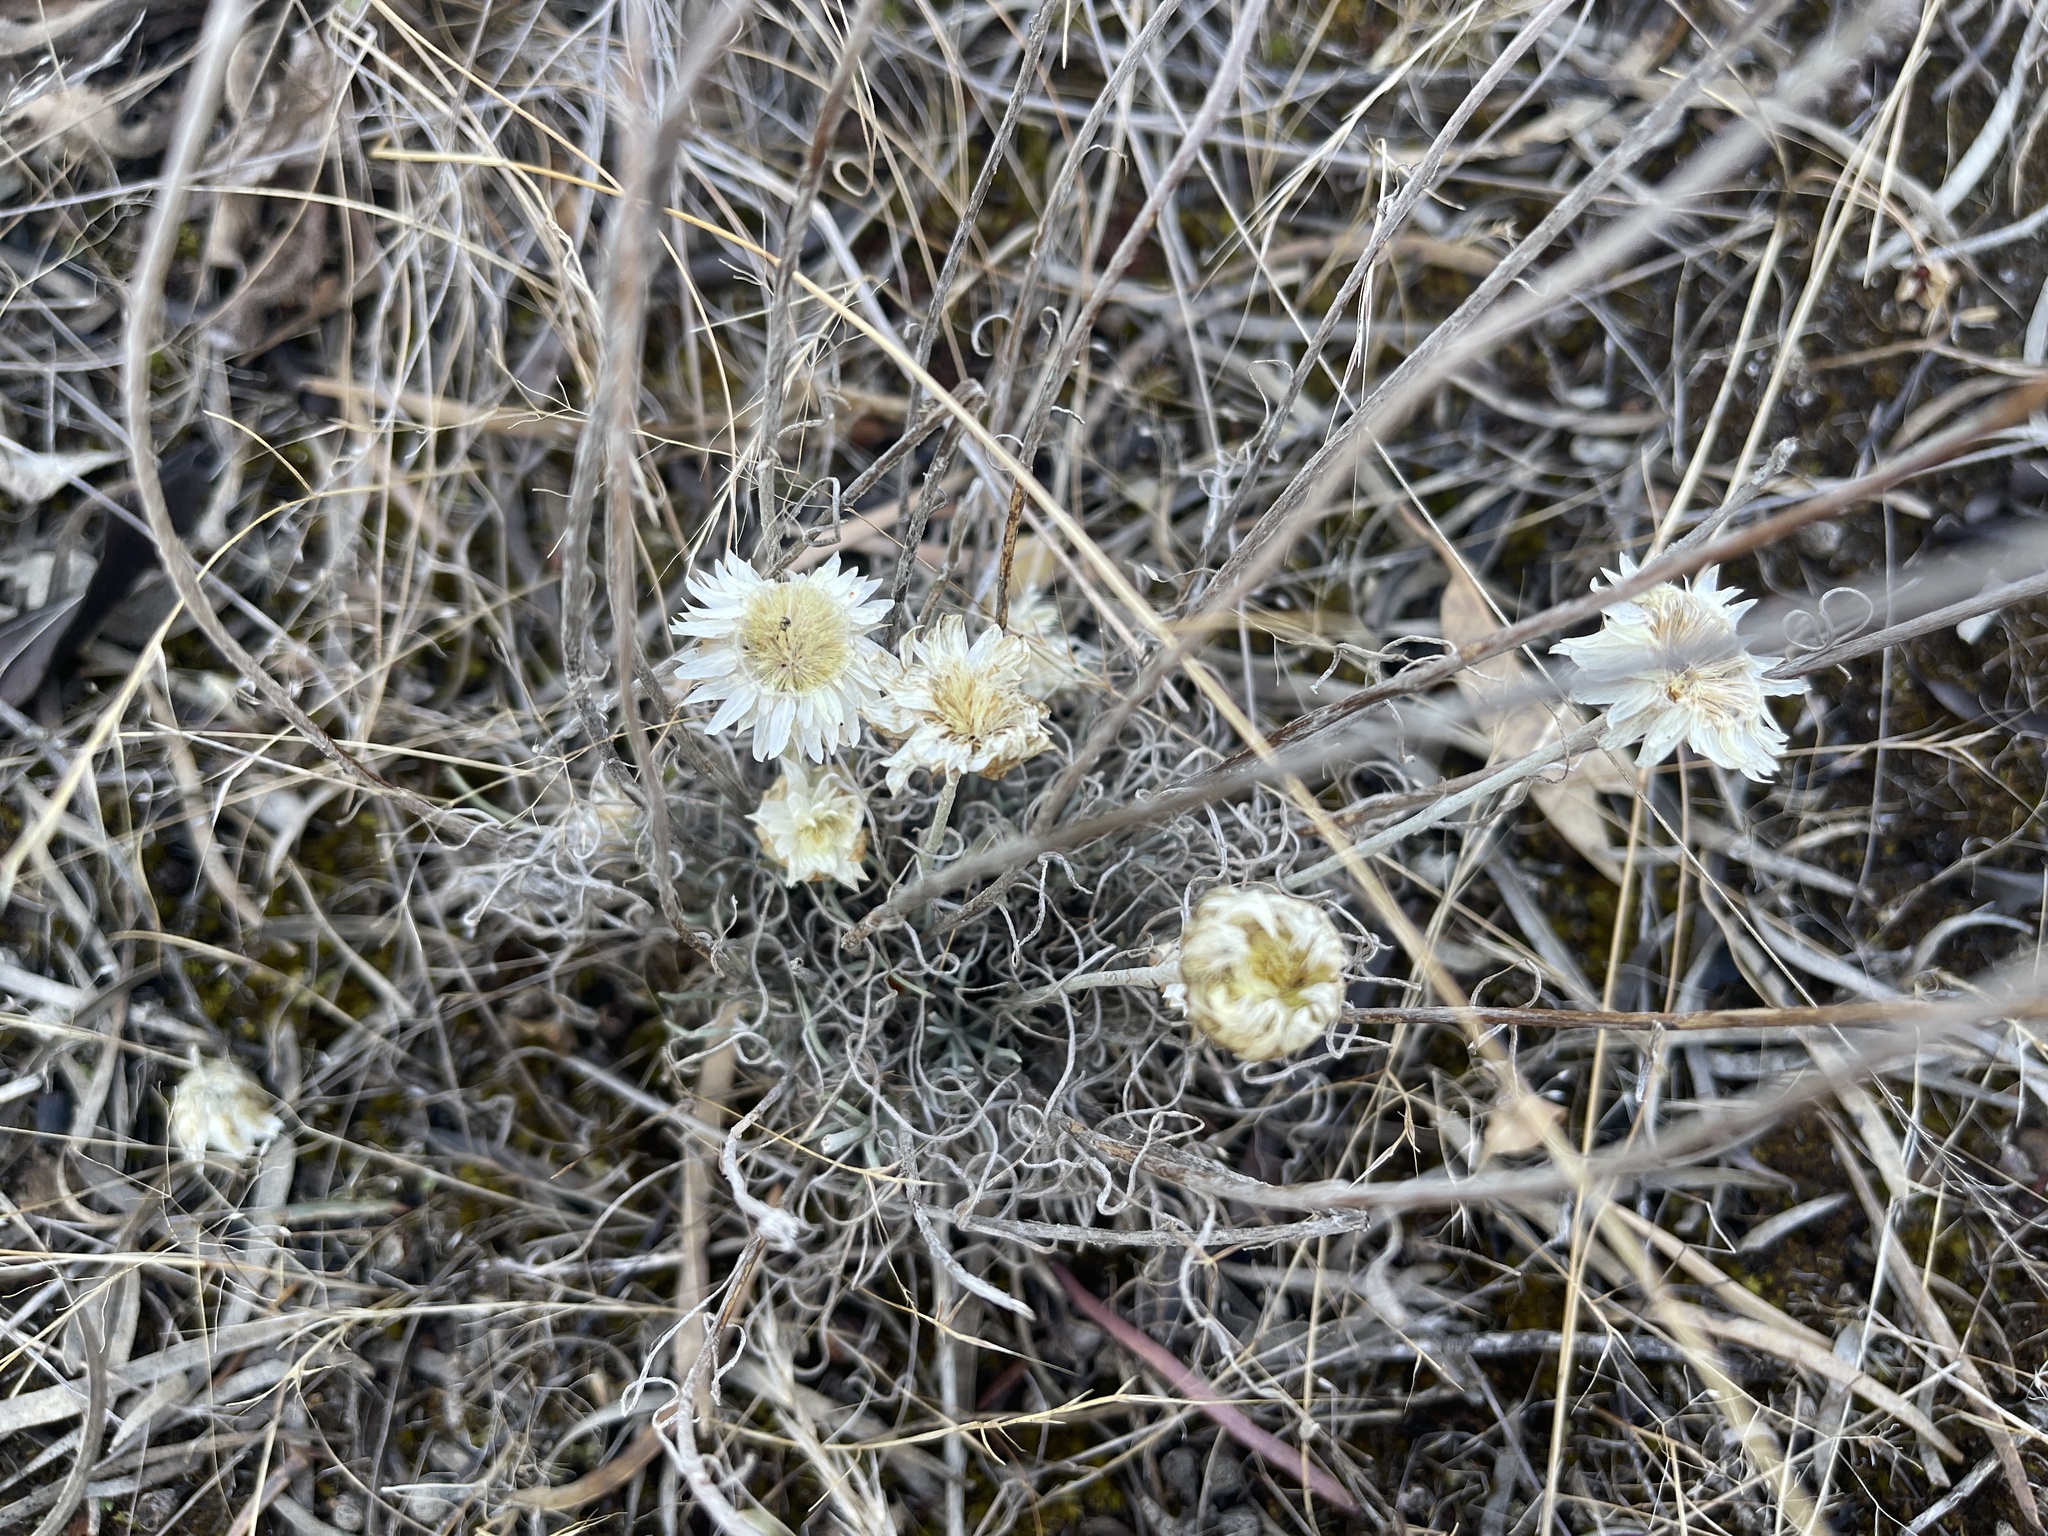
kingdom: Plantae
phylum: Tracheophyta
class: Magnoliopsida
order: Asterales
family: Asteraceae
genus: Leucochrysum
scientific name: Leucochrysum albicans
